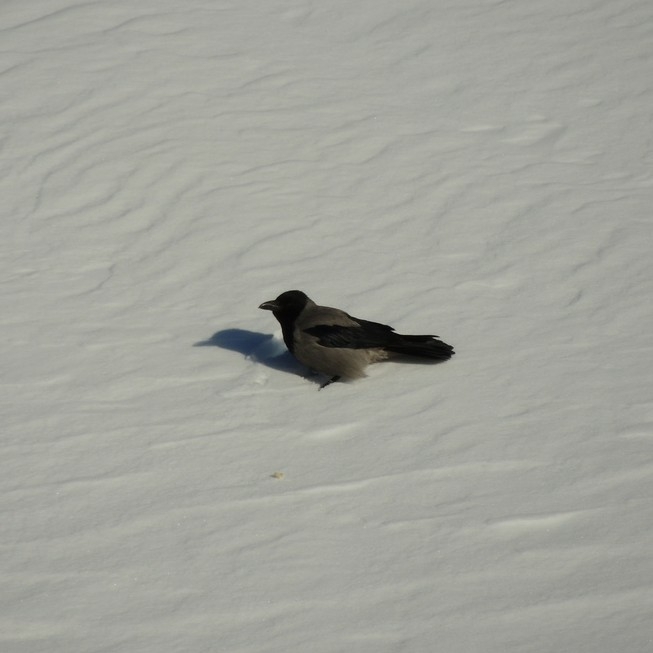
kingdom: Animalia
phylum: Chordata
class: Aves
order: Passeriformes
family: Corvidae
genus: Corvus
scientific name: Corvus cornix
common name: Hooded crow
